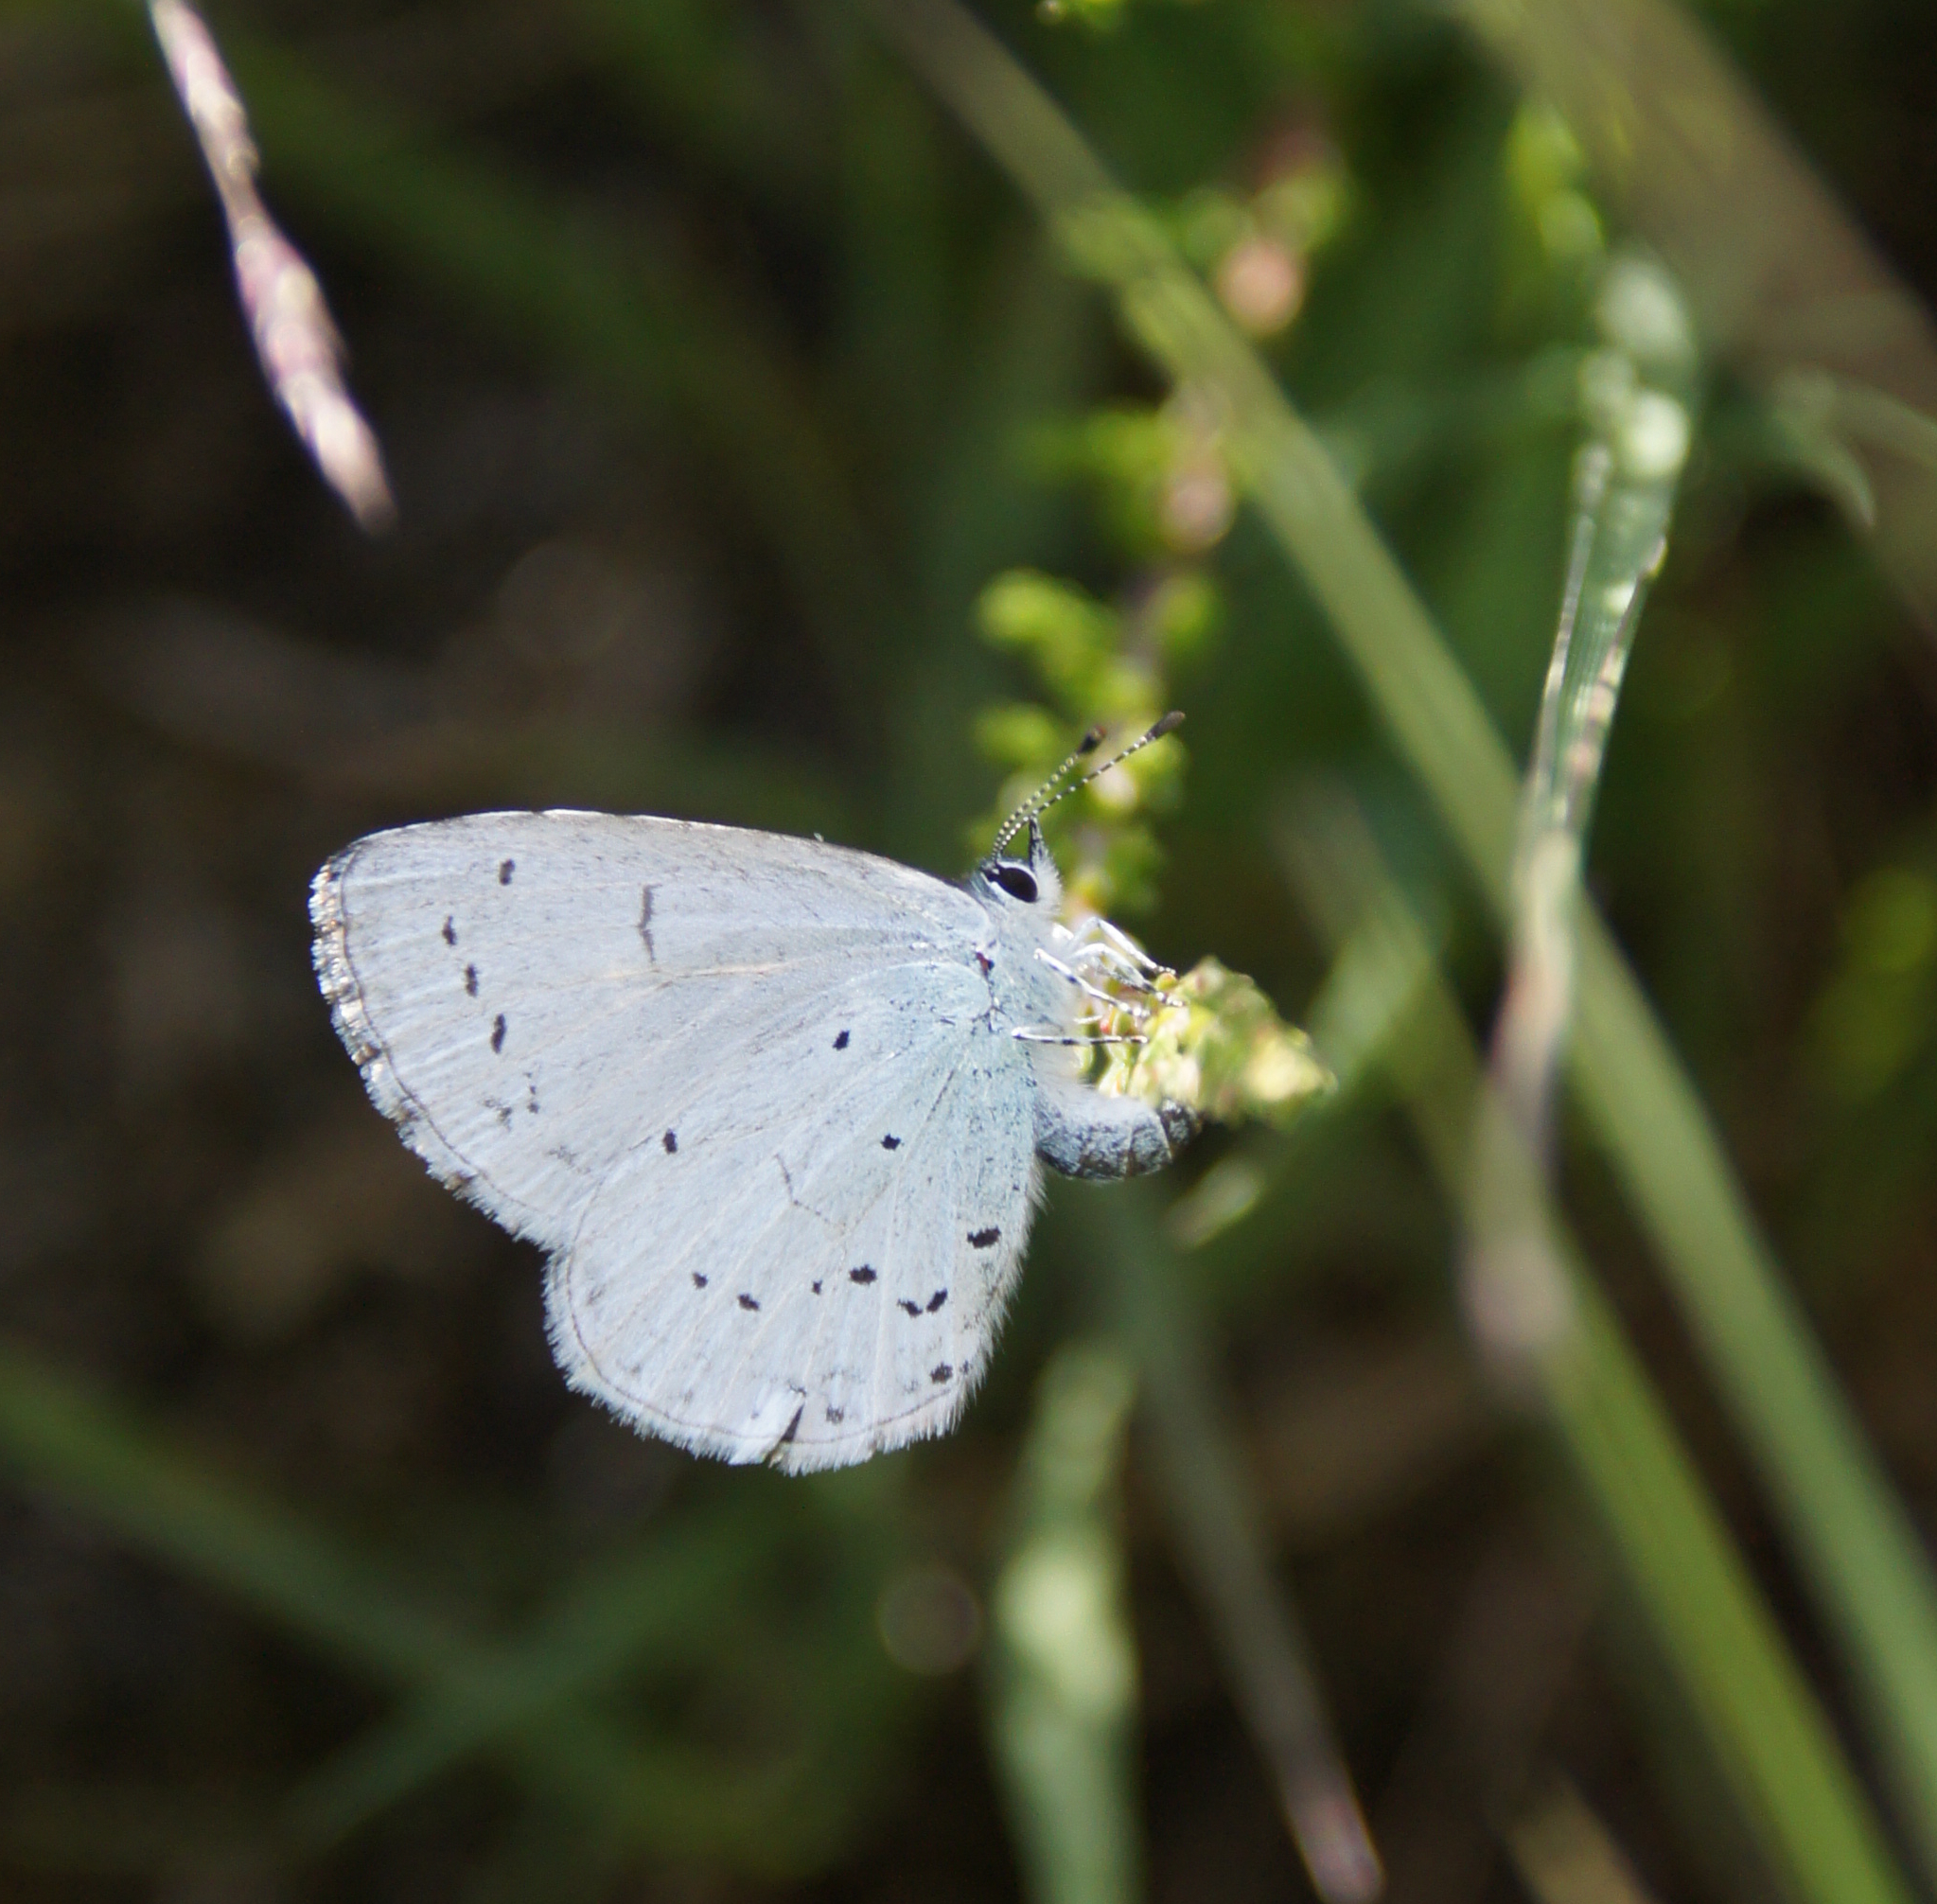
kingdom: Animalia
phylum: Arthropoda
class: Insecta
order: Lepidoptera
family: Lycaenidae
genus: Celastrina
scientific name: Celastrina argiolus
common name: Holly blue
